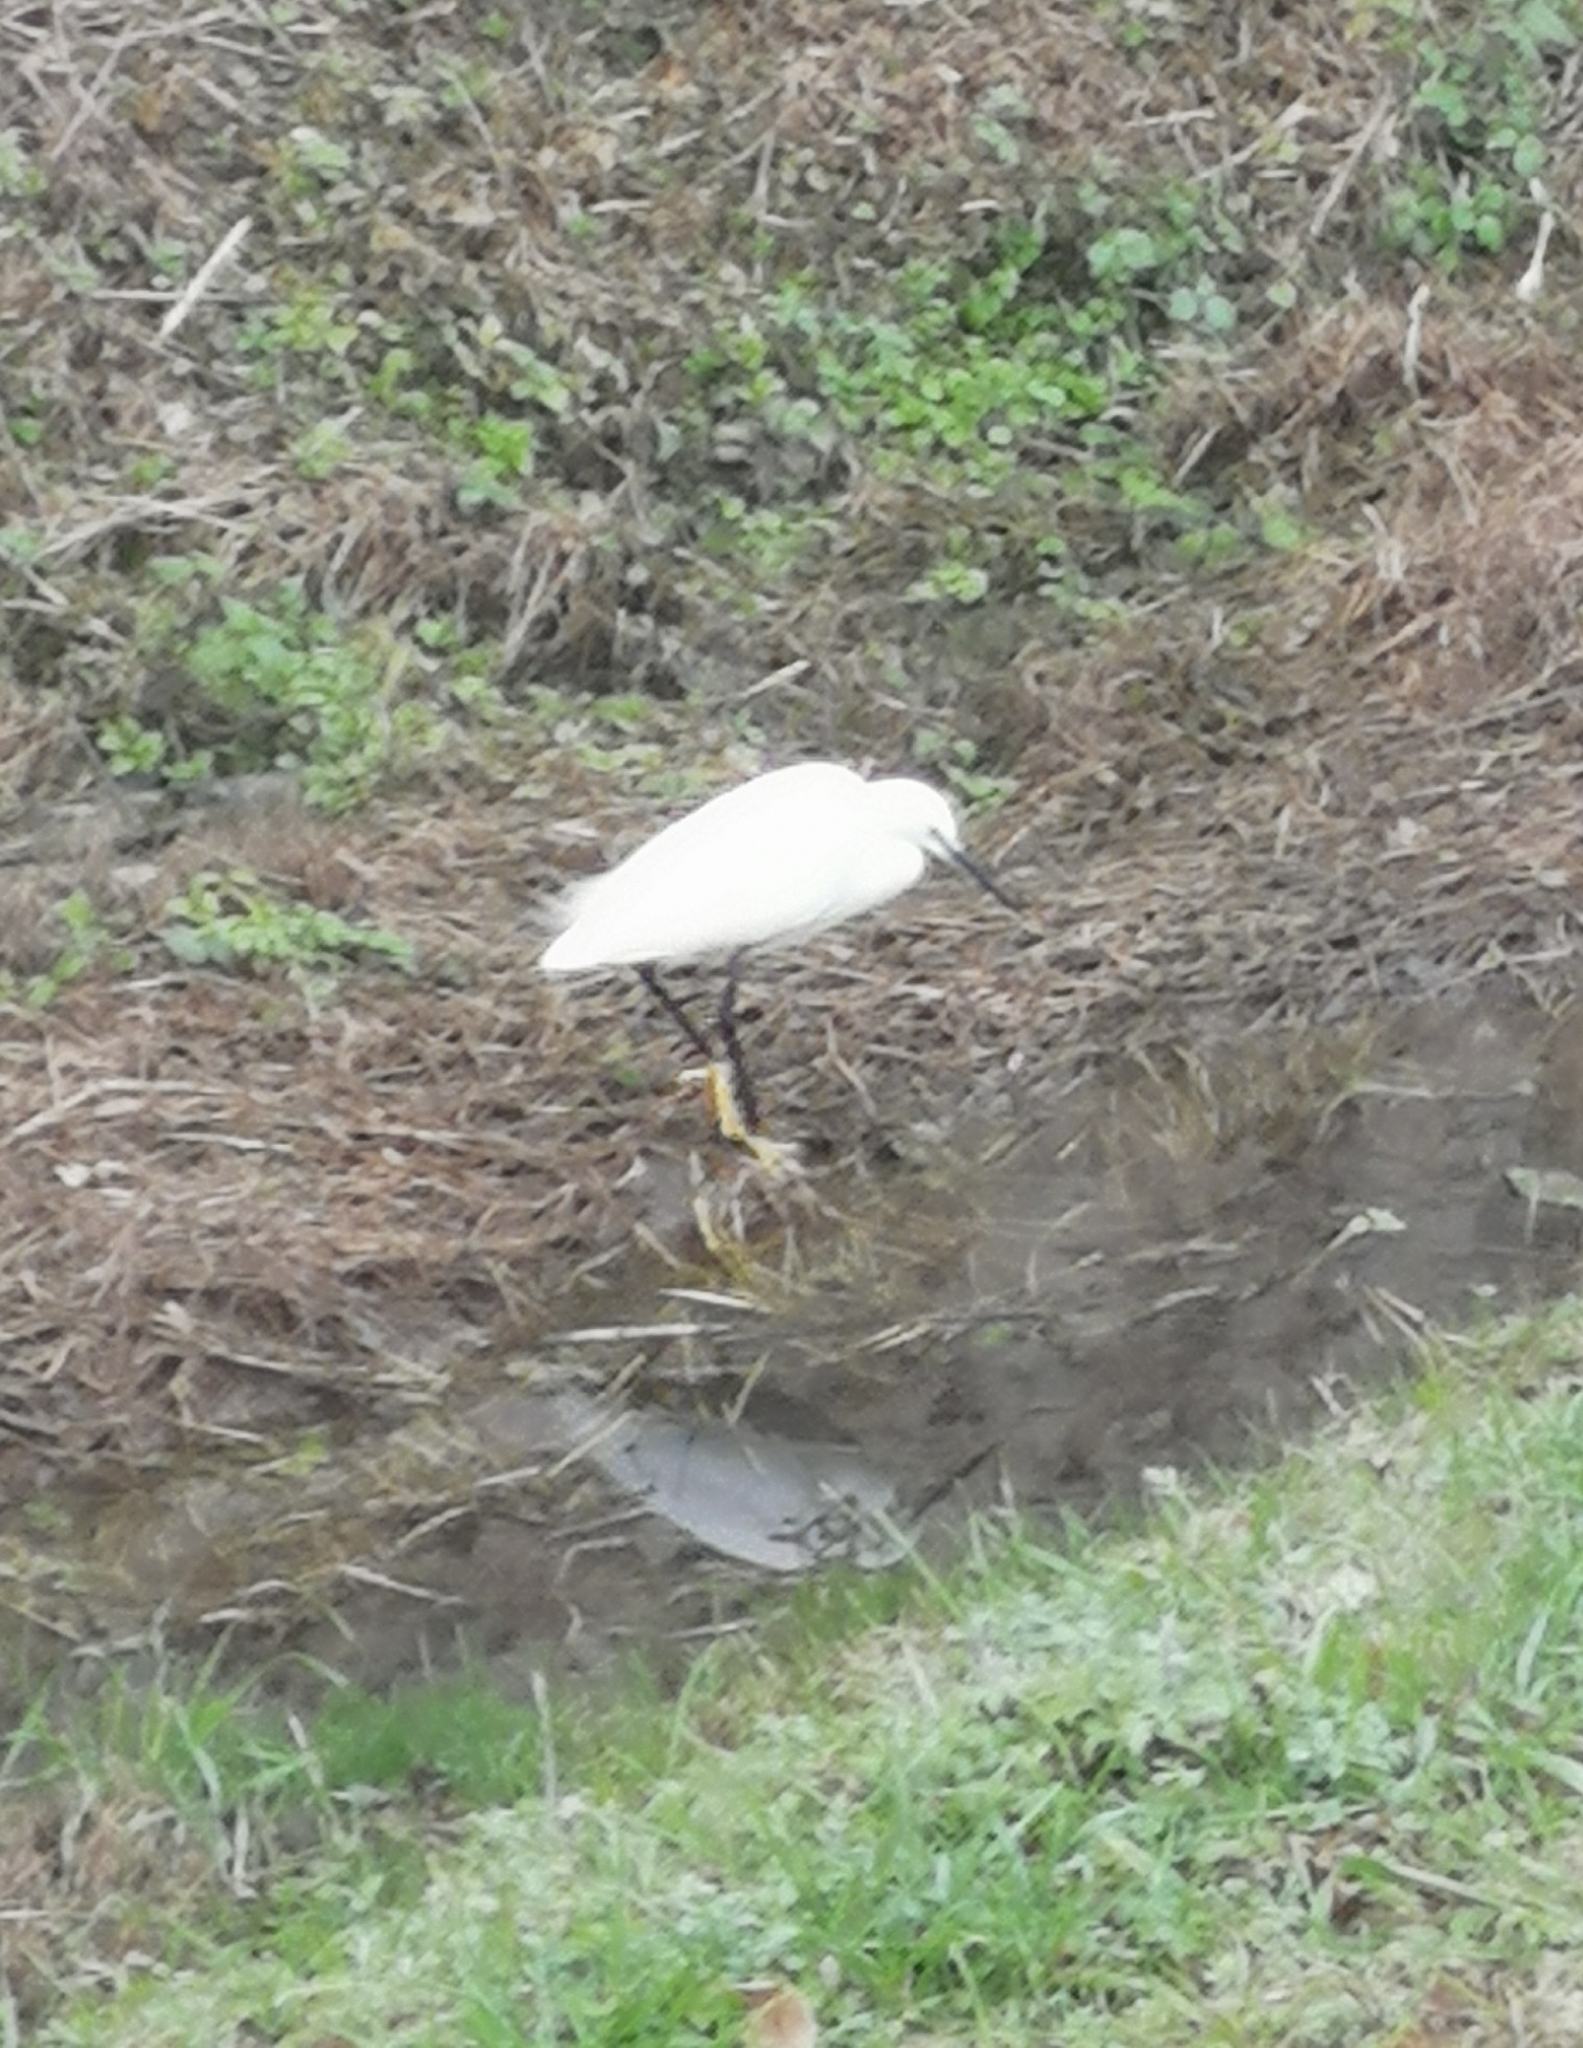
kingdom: Animalia
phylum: Chordata
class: Aves
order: Pelecaniformes
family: Ardeidae
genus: Egretta
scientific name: Egretta garzetta
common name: Little egret
